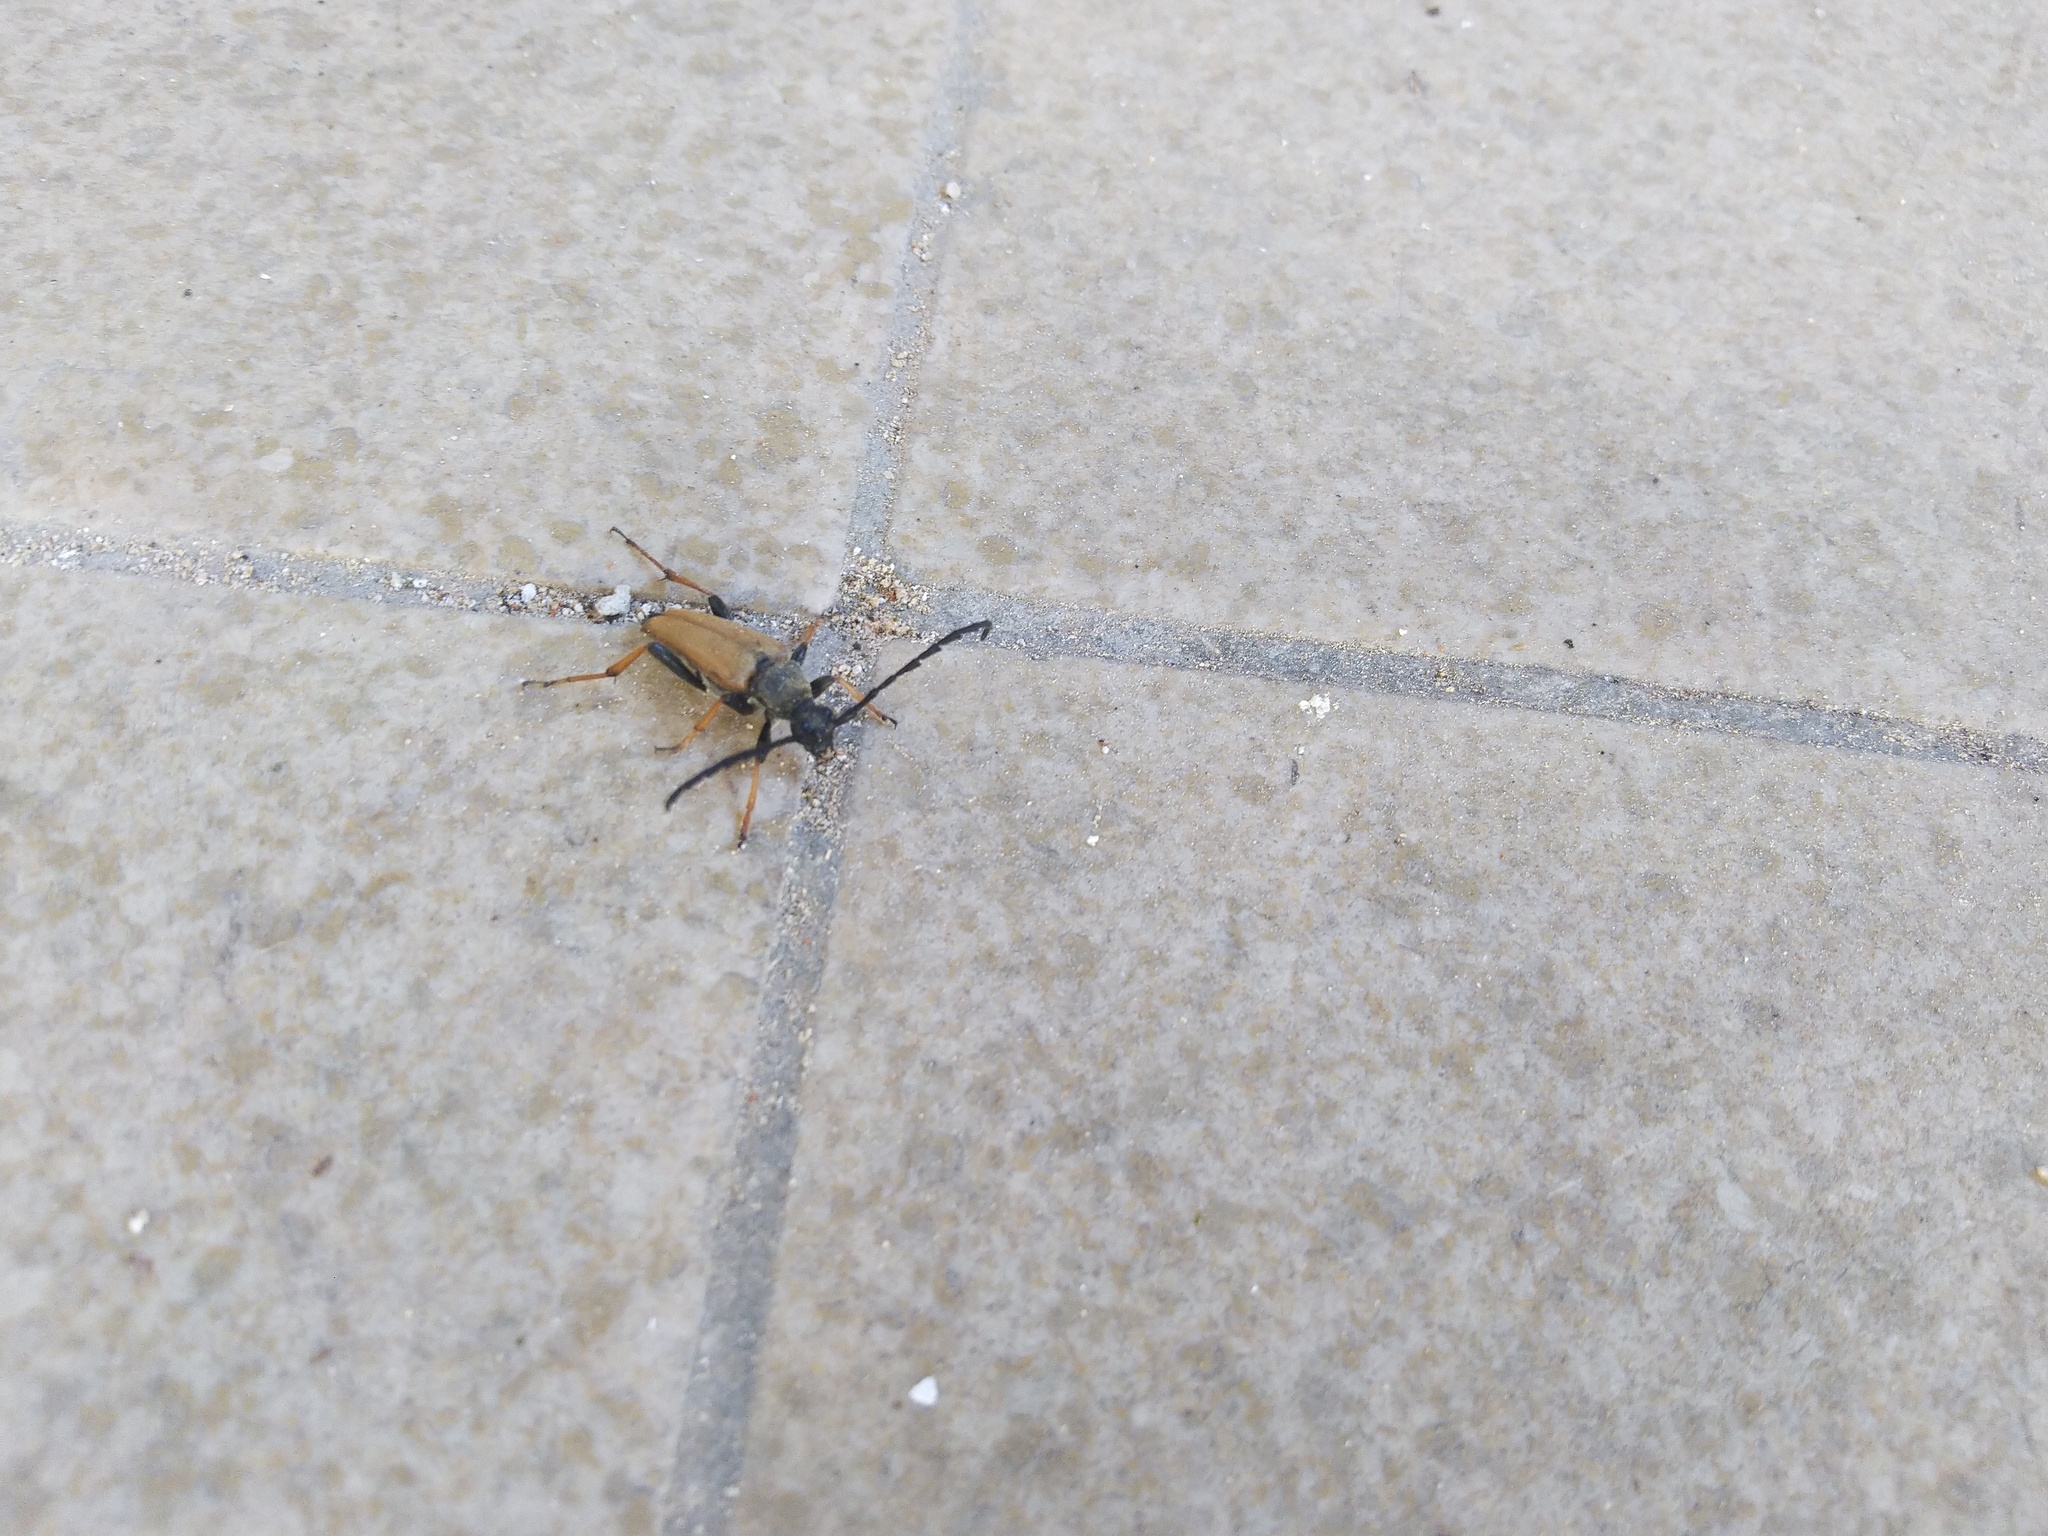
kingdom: Animalia
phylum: Arthropoda
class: Insecta
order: Coleoptera
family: Cerambycidae
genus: Stictoleptura
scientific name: Stictoleptura rubra
